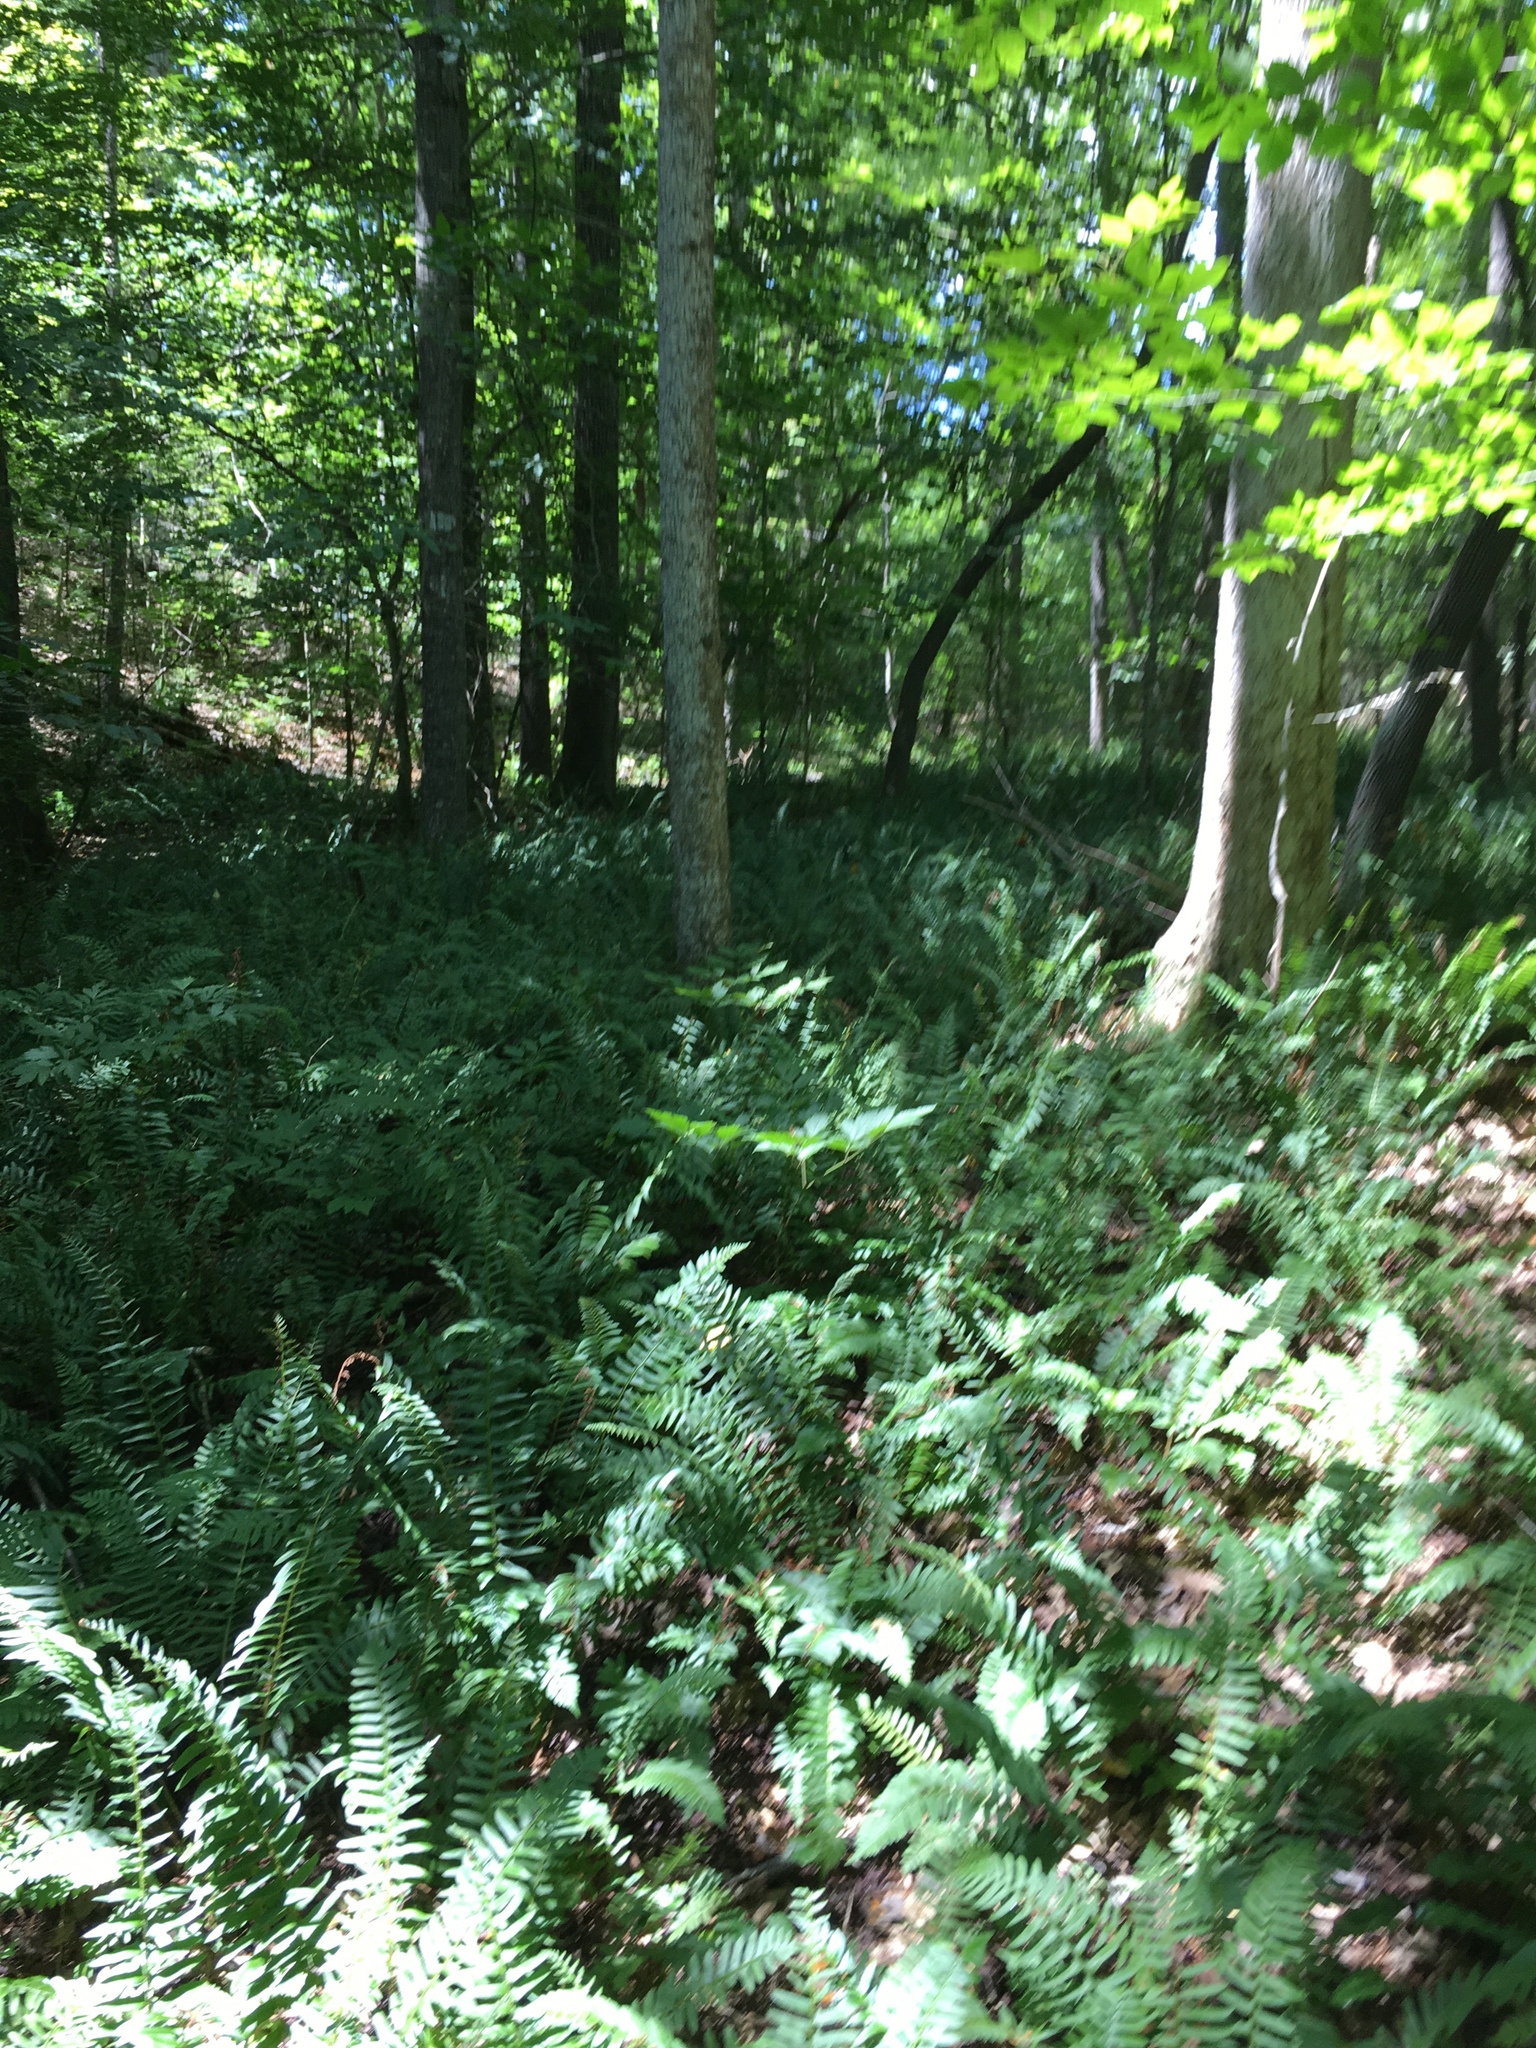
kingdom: Plantae
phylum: Tracheophyta
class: Polypodiopsida
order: Polypodiales
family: Dryopteridaceae
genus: Polystichum
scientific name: Polystichum acrostichoides
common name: Christmas fern
